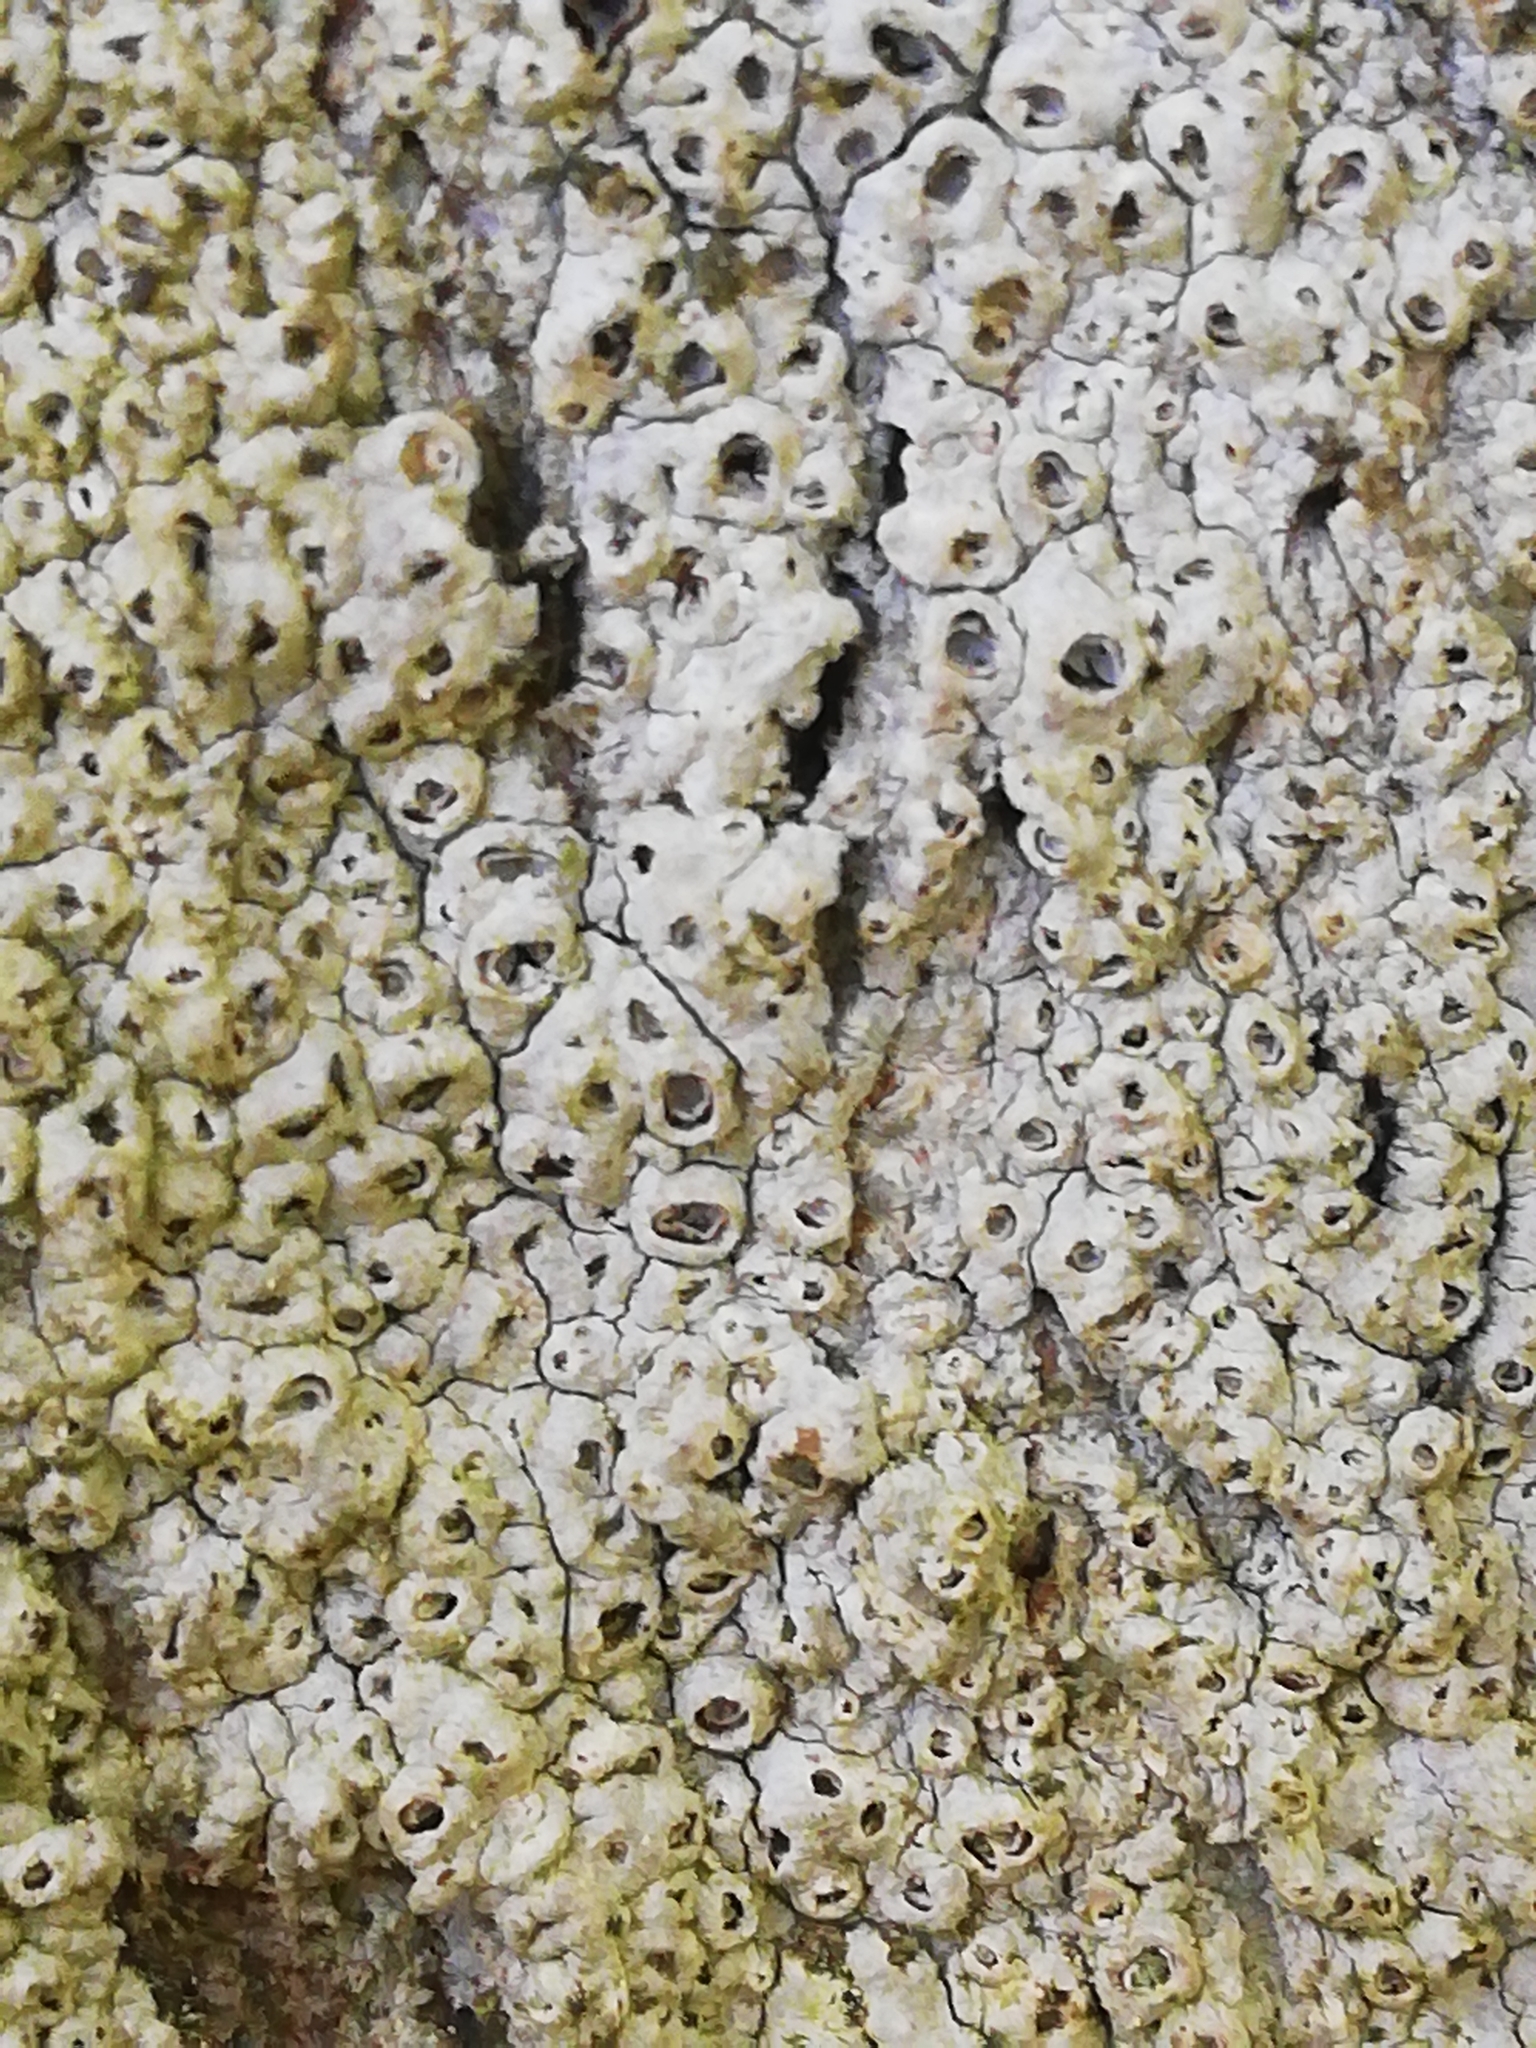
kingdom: Fungi
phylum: Ascomycota
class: Lecanoromycetes
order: Ostropales
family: Graphidaceae
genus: Thelotrema
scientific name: Thelotrema lepadinum
